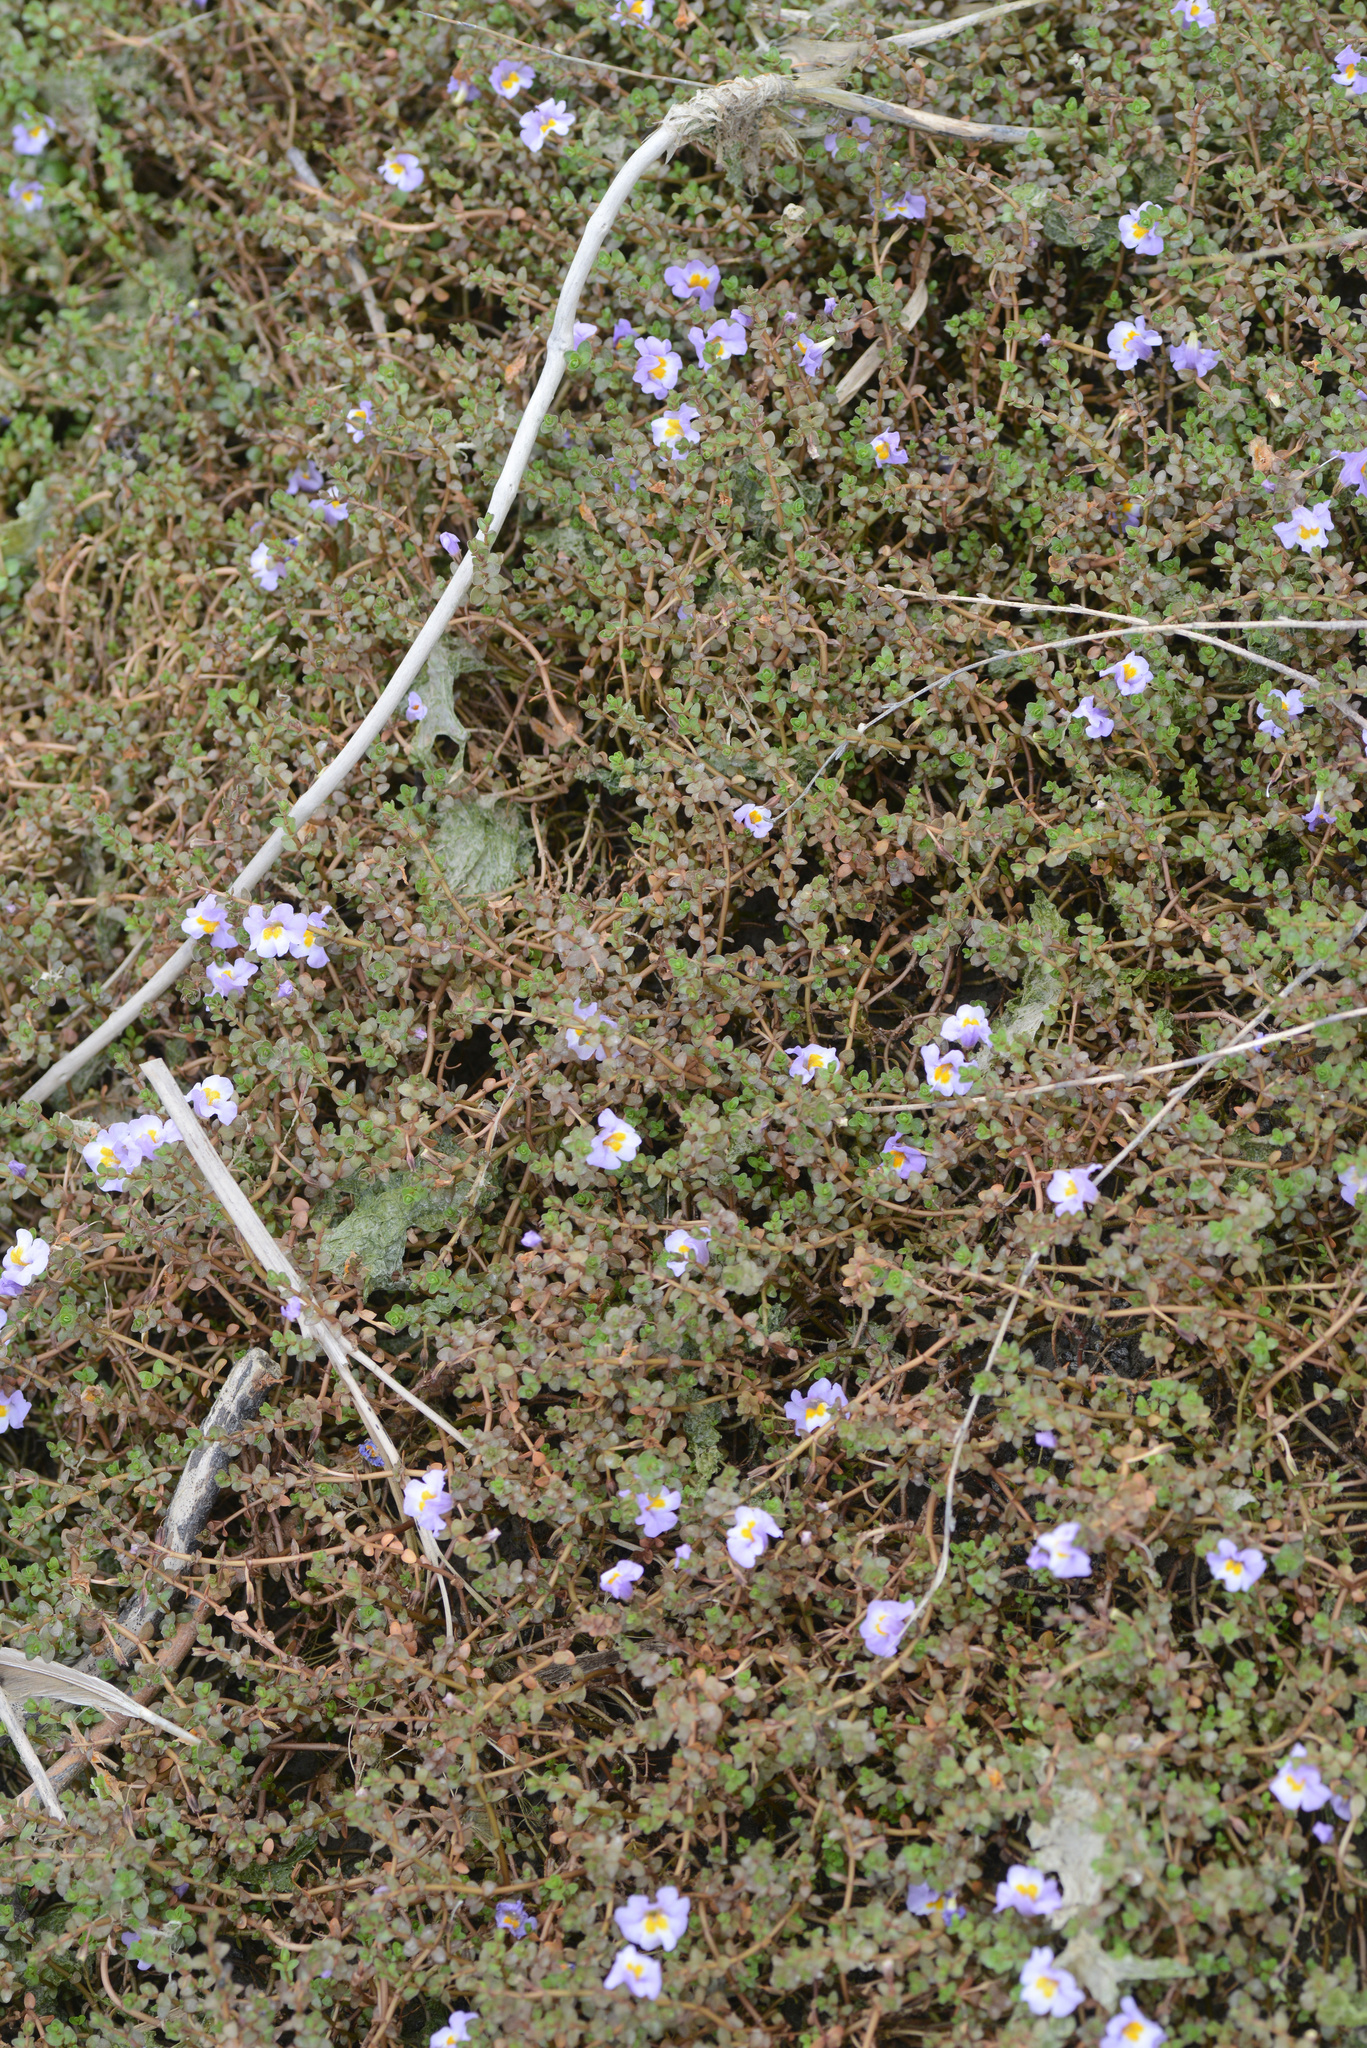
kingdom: Plantae
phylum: Tracheophyta
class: Magnoliopsida
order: Lamiales
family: Phrymaceae
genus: Thyridia
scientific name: Thyridia repens
